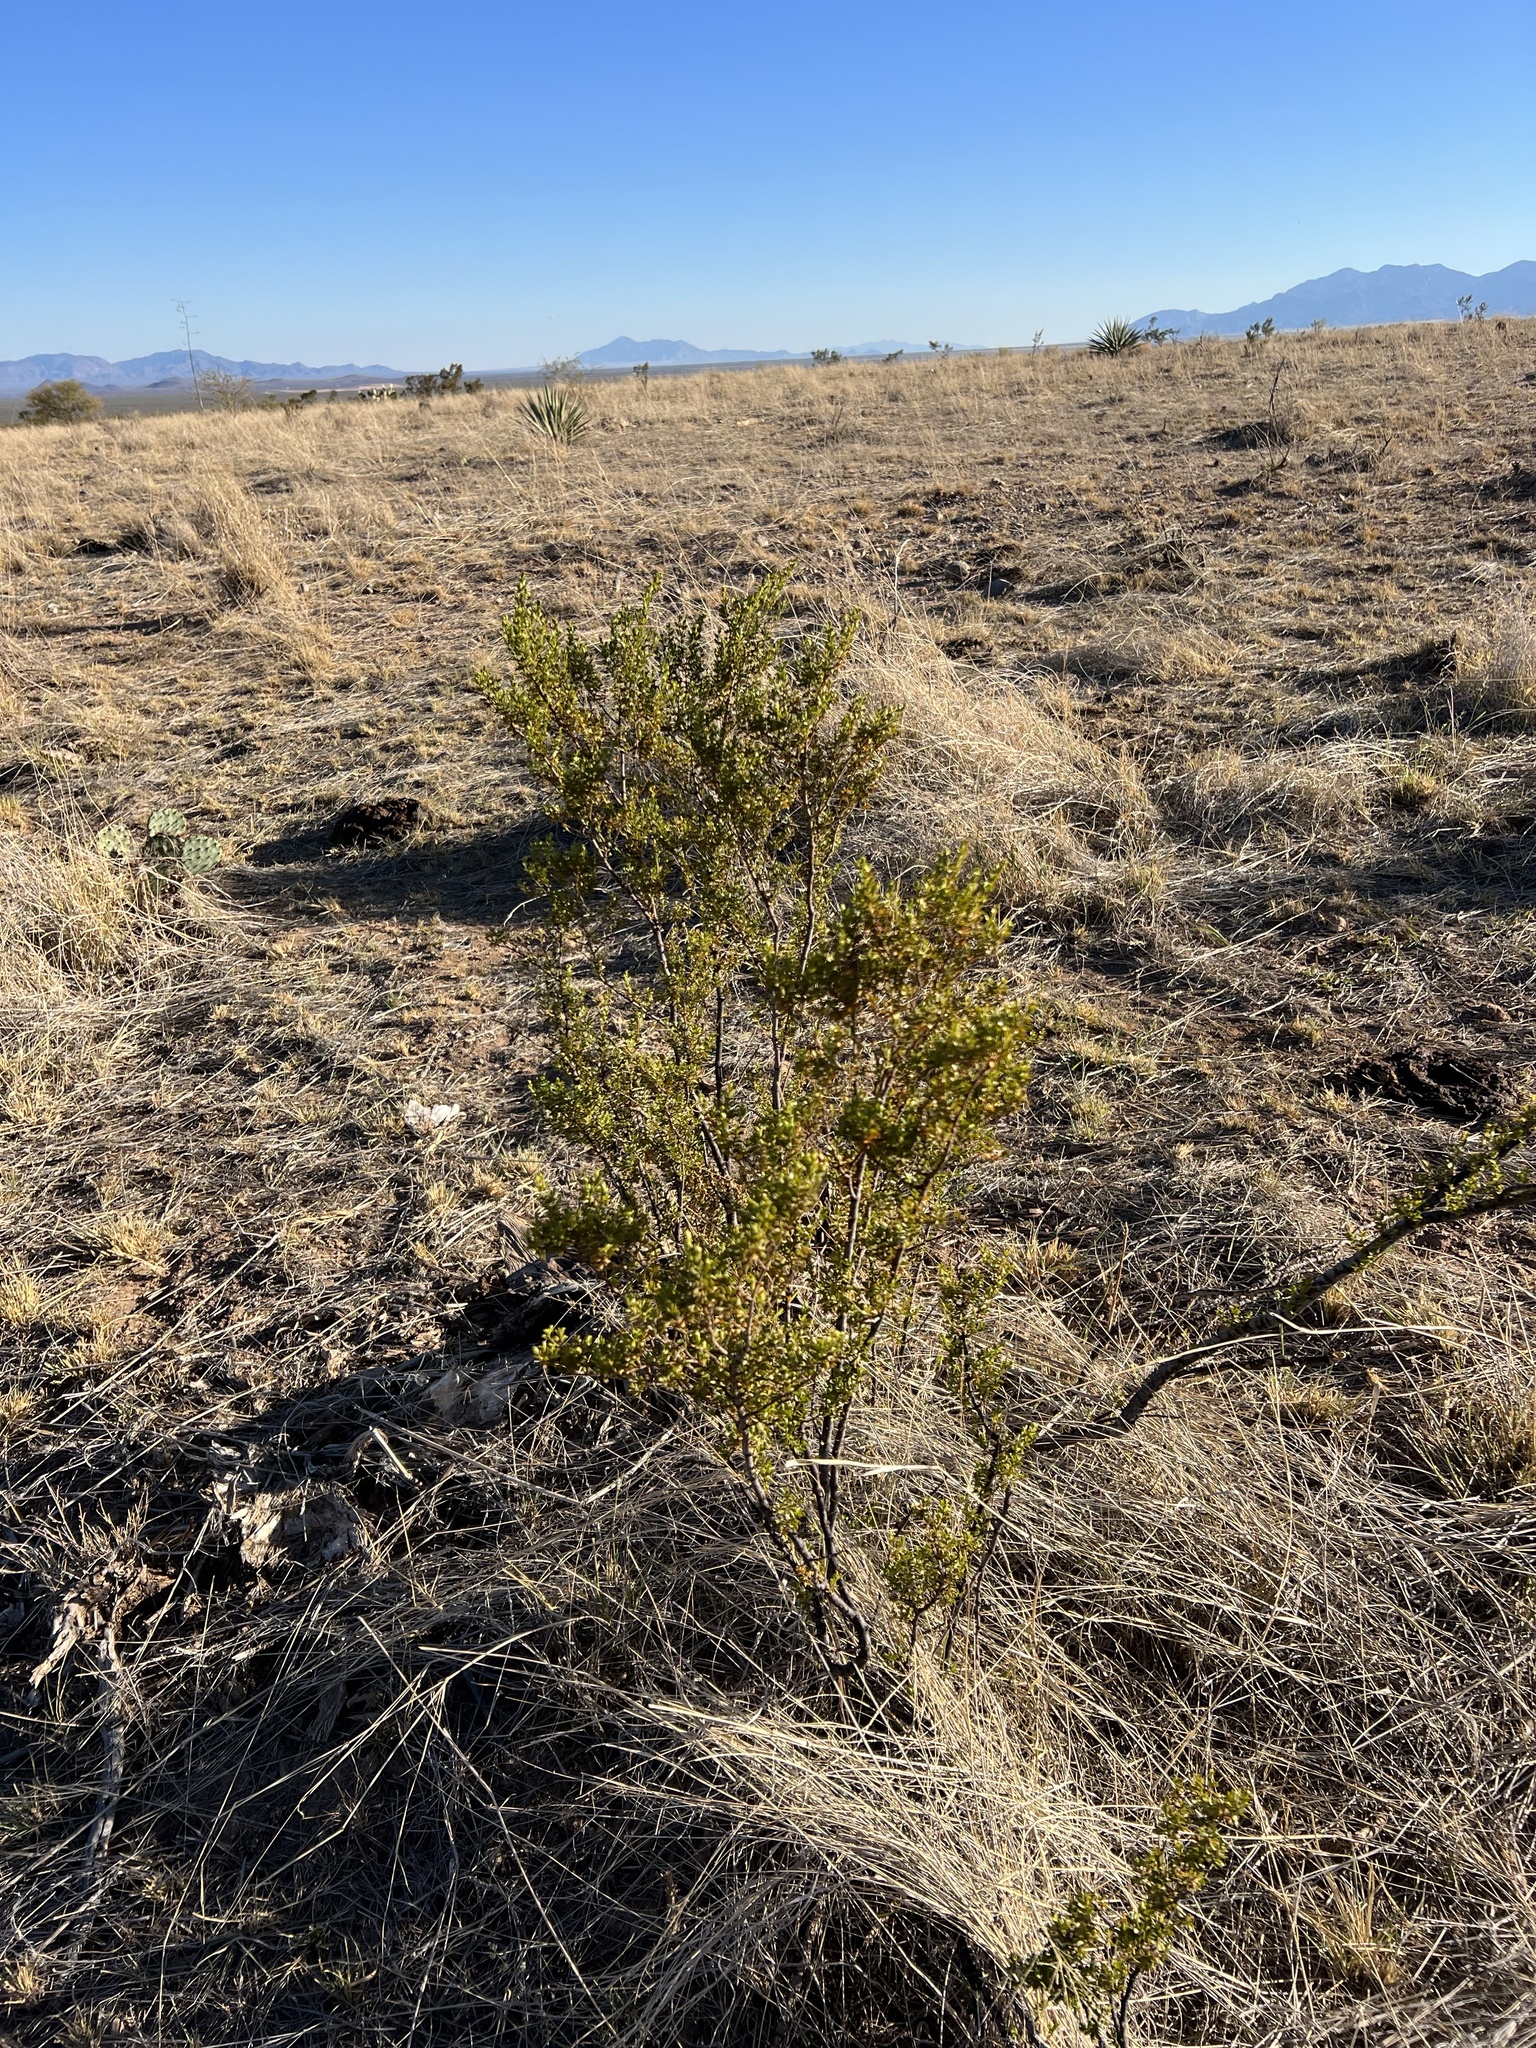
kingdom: Plantae
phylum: Tracheophyta
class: Magnoliopsida
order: Zygophyllales
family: Zygophyllaceae
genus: Larrea
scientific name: Larrea tridentata
